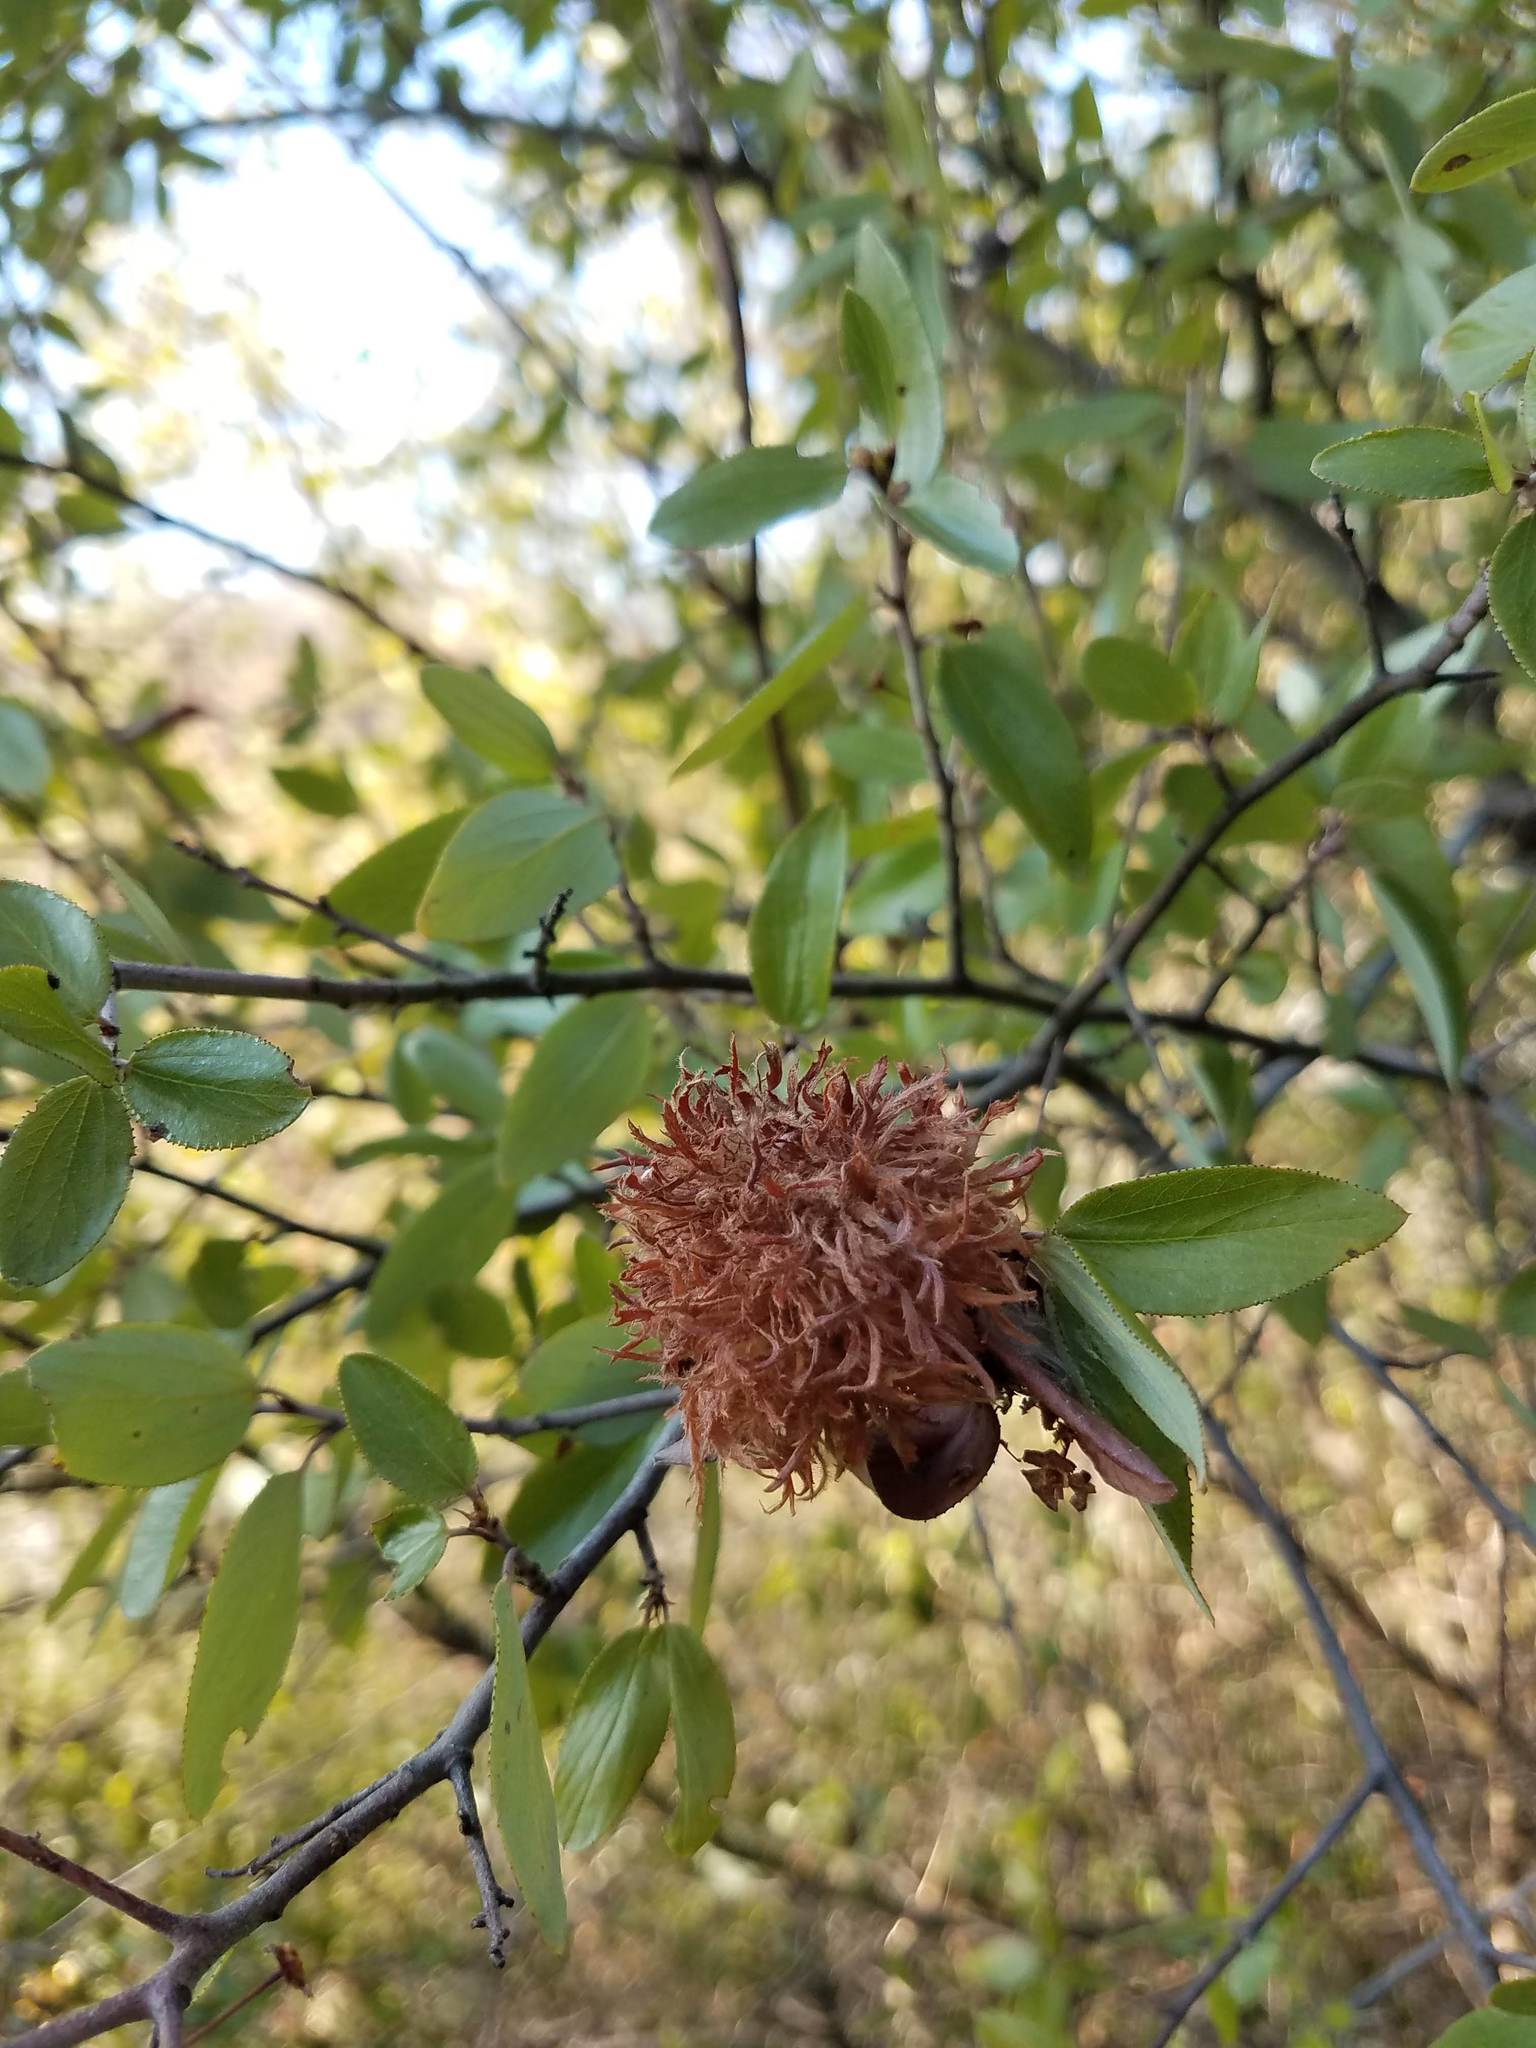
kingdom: Animalia
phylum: Arthropoda
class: Insecta
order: Diptera
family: Cecidomyiidae
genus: Asphondylia
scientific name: Asphondylia ceanothi
